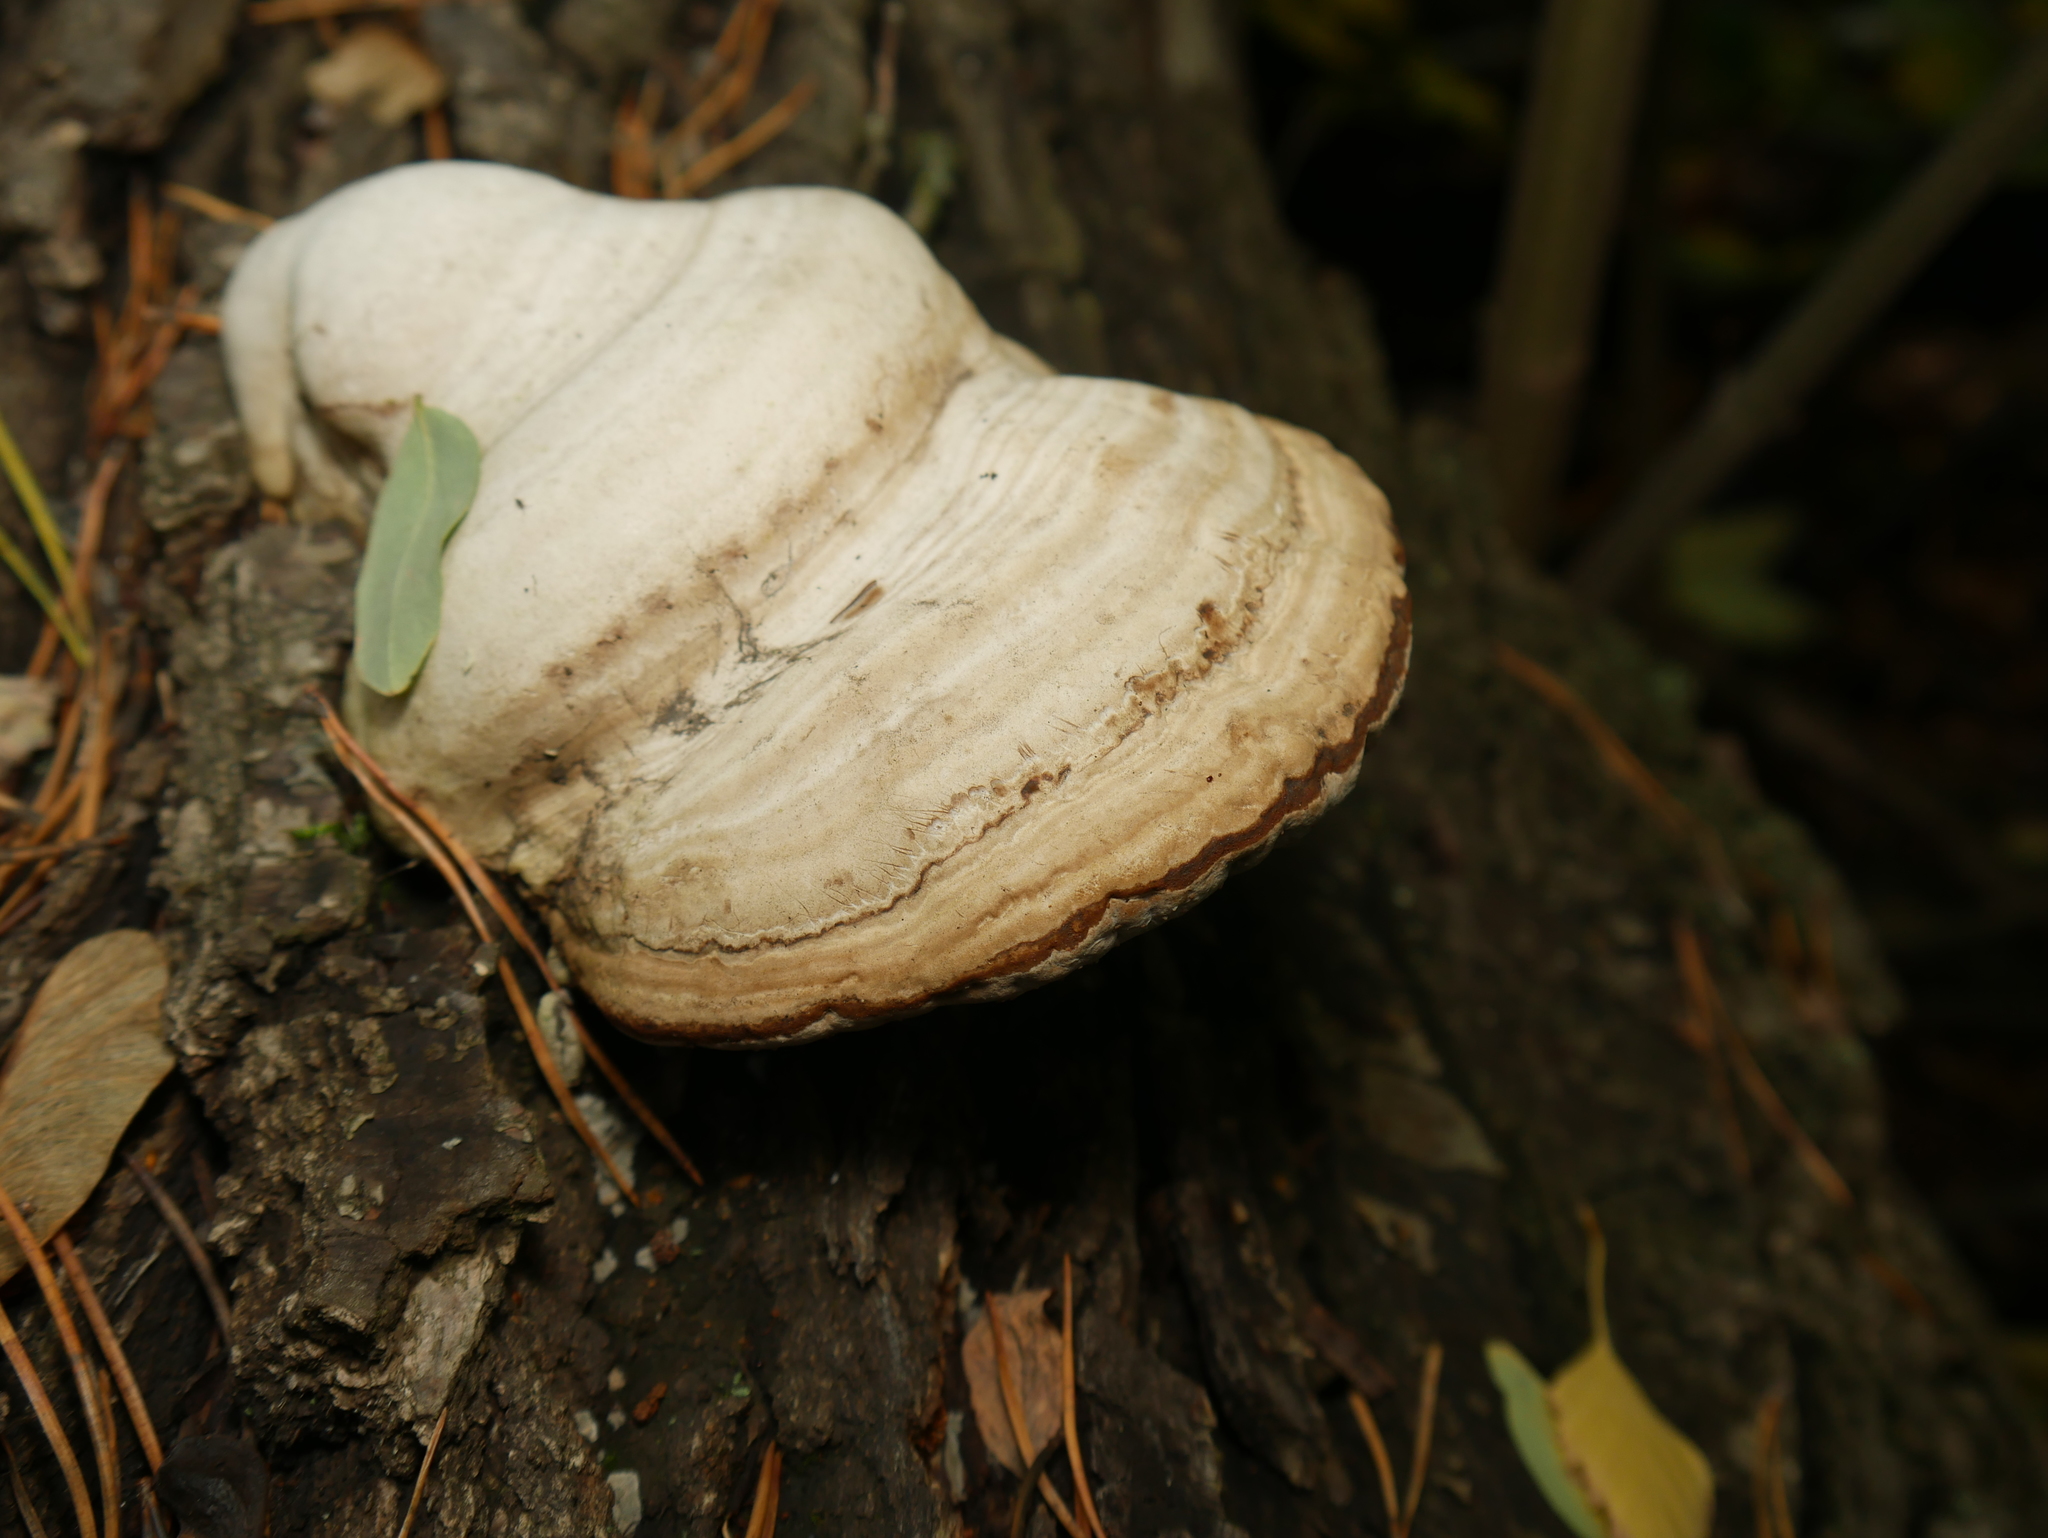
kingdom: Fungi
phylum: Basidiomycota
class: Agaricomycetes
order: Polyporales
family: Polyporaceae
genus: Fomes
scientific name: Fomes fomentarius
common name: Hoof fungus
